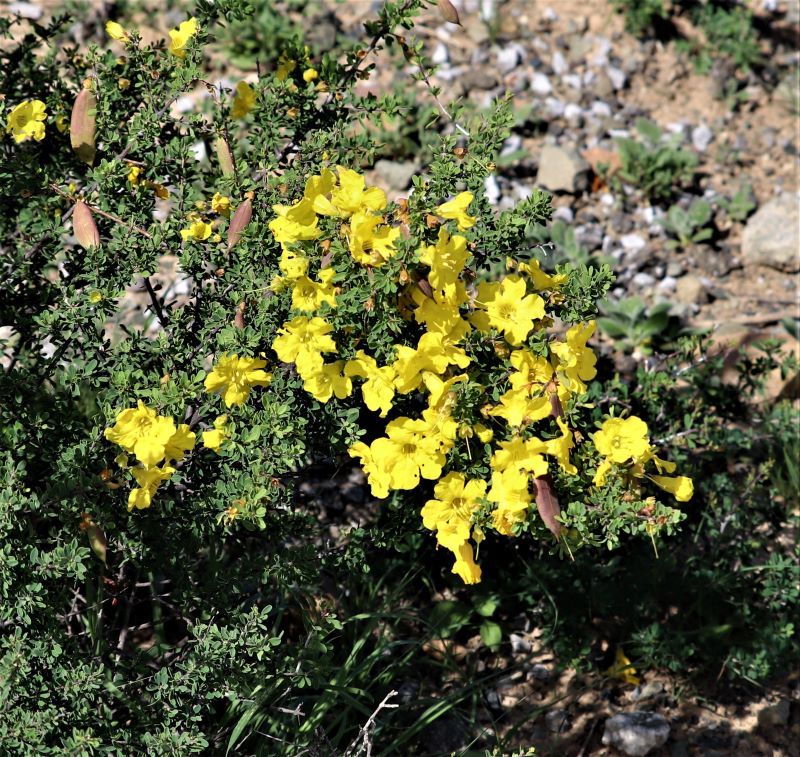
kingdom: Plantae
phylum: Tracheophyta
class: Magnoliopsida
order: Lamiales
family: Bignoniaceae
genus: Rhigozum
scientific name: Rhigozum obovatum
